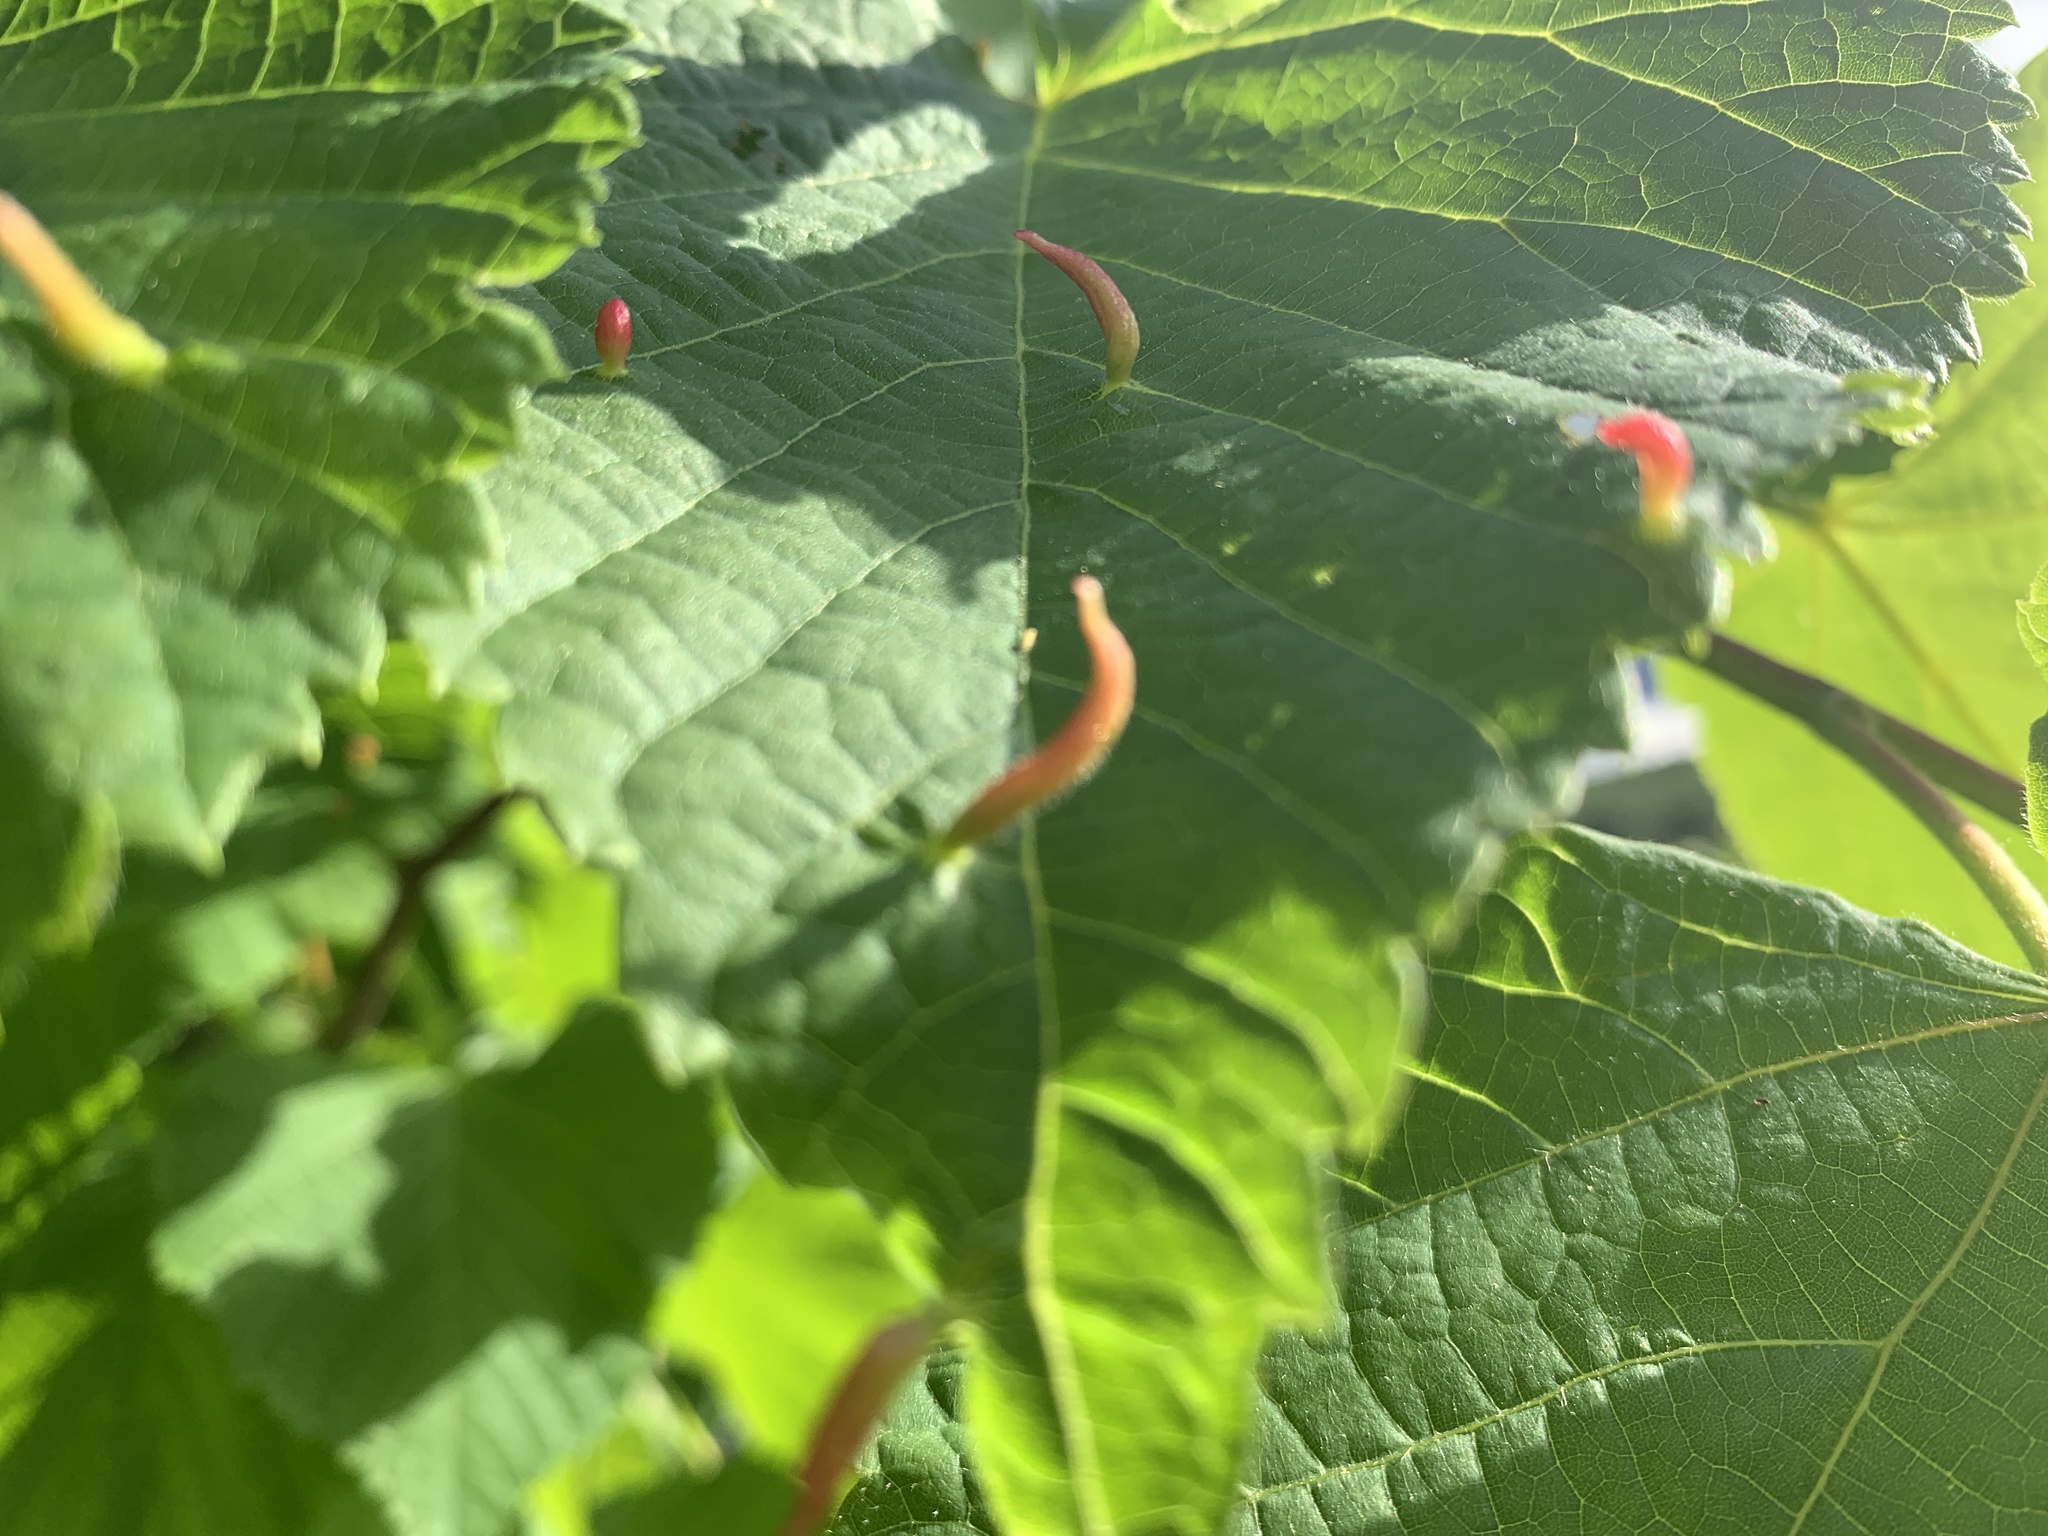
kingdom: Animalia
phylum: Arthropoda
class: Arachnida
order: Trombidiformes
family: Eriophyidae
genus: Eriophyes
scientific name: Eriophyes tiliae
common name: Red nail gall mite
